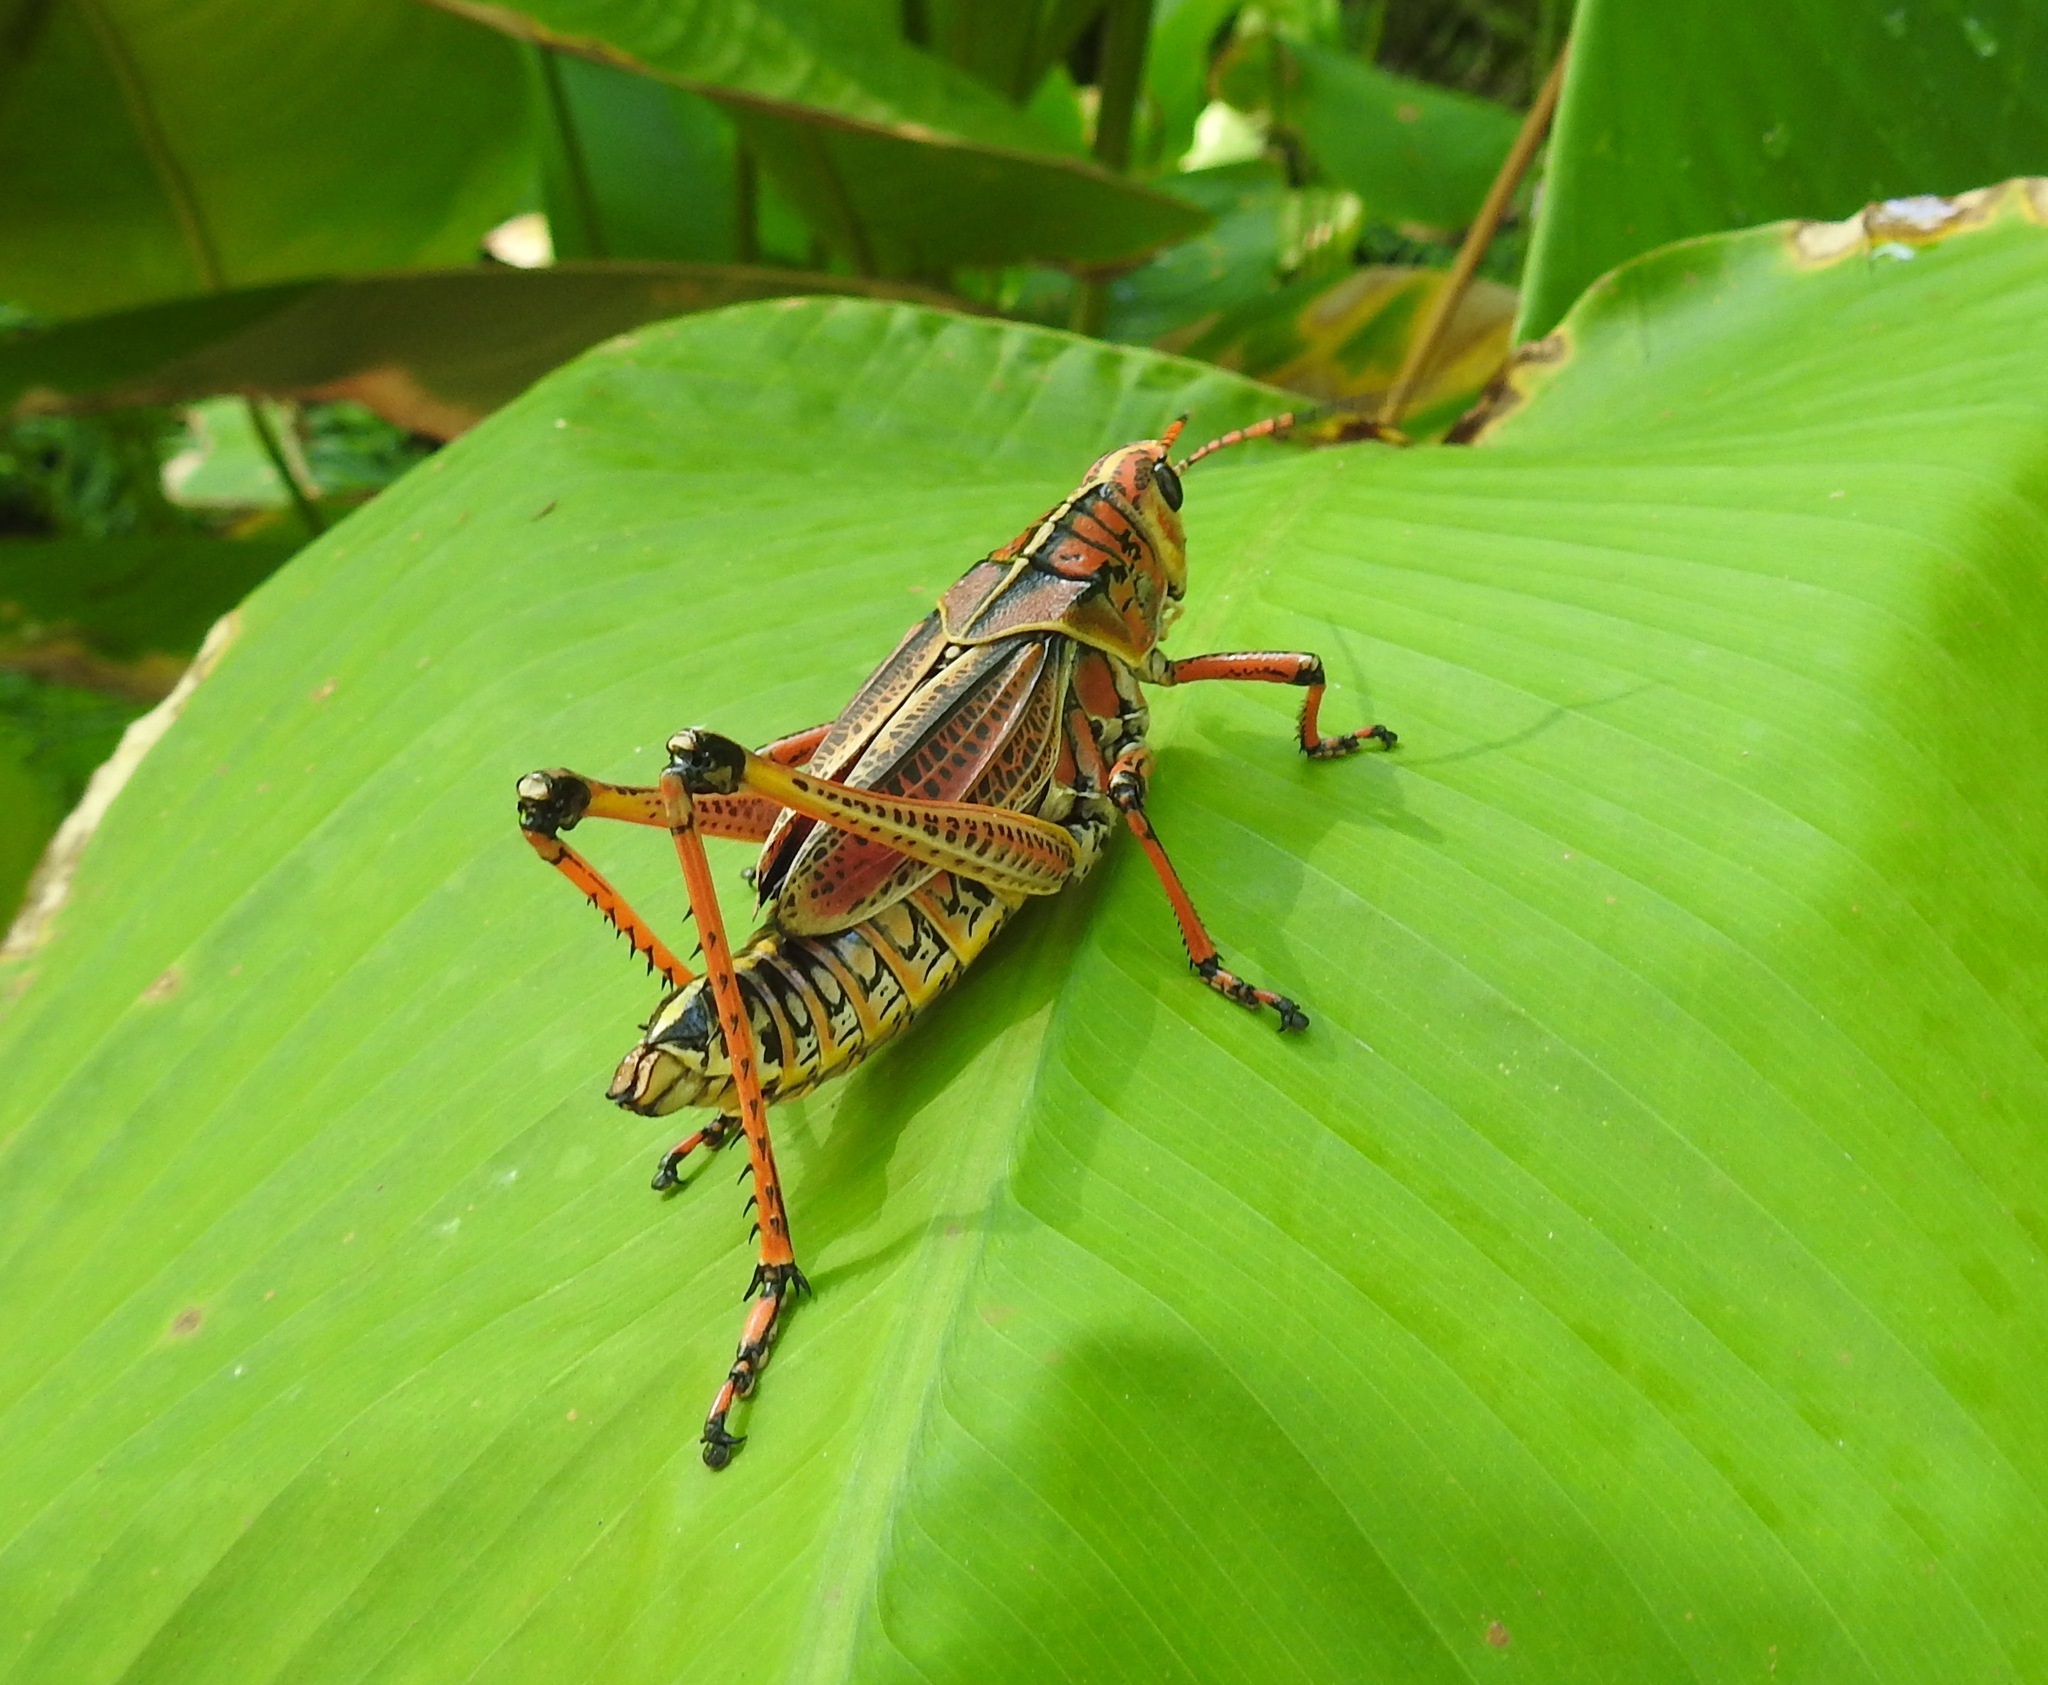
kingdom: Animalia
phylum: Arthropoda
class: Insecta
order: Orthoptera
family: Romaleidae
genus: Romalea
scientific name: Romalea microptera
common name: Eastern lubber grasshopper
